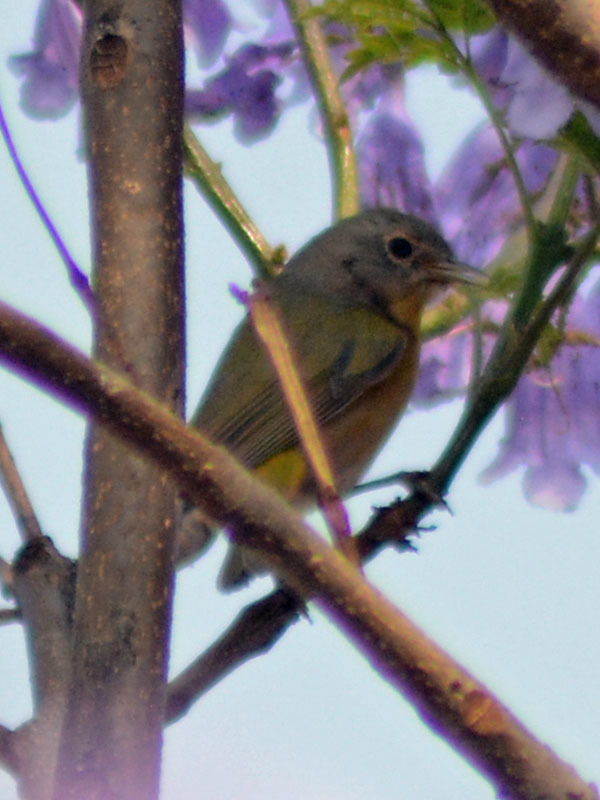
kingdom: Animalia
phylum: Chordata
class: Aves
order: Passeriformes
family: Parulidae
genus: Leiothlypis
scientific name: Leiothlypis ruficapilla
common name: Nashville warbler
